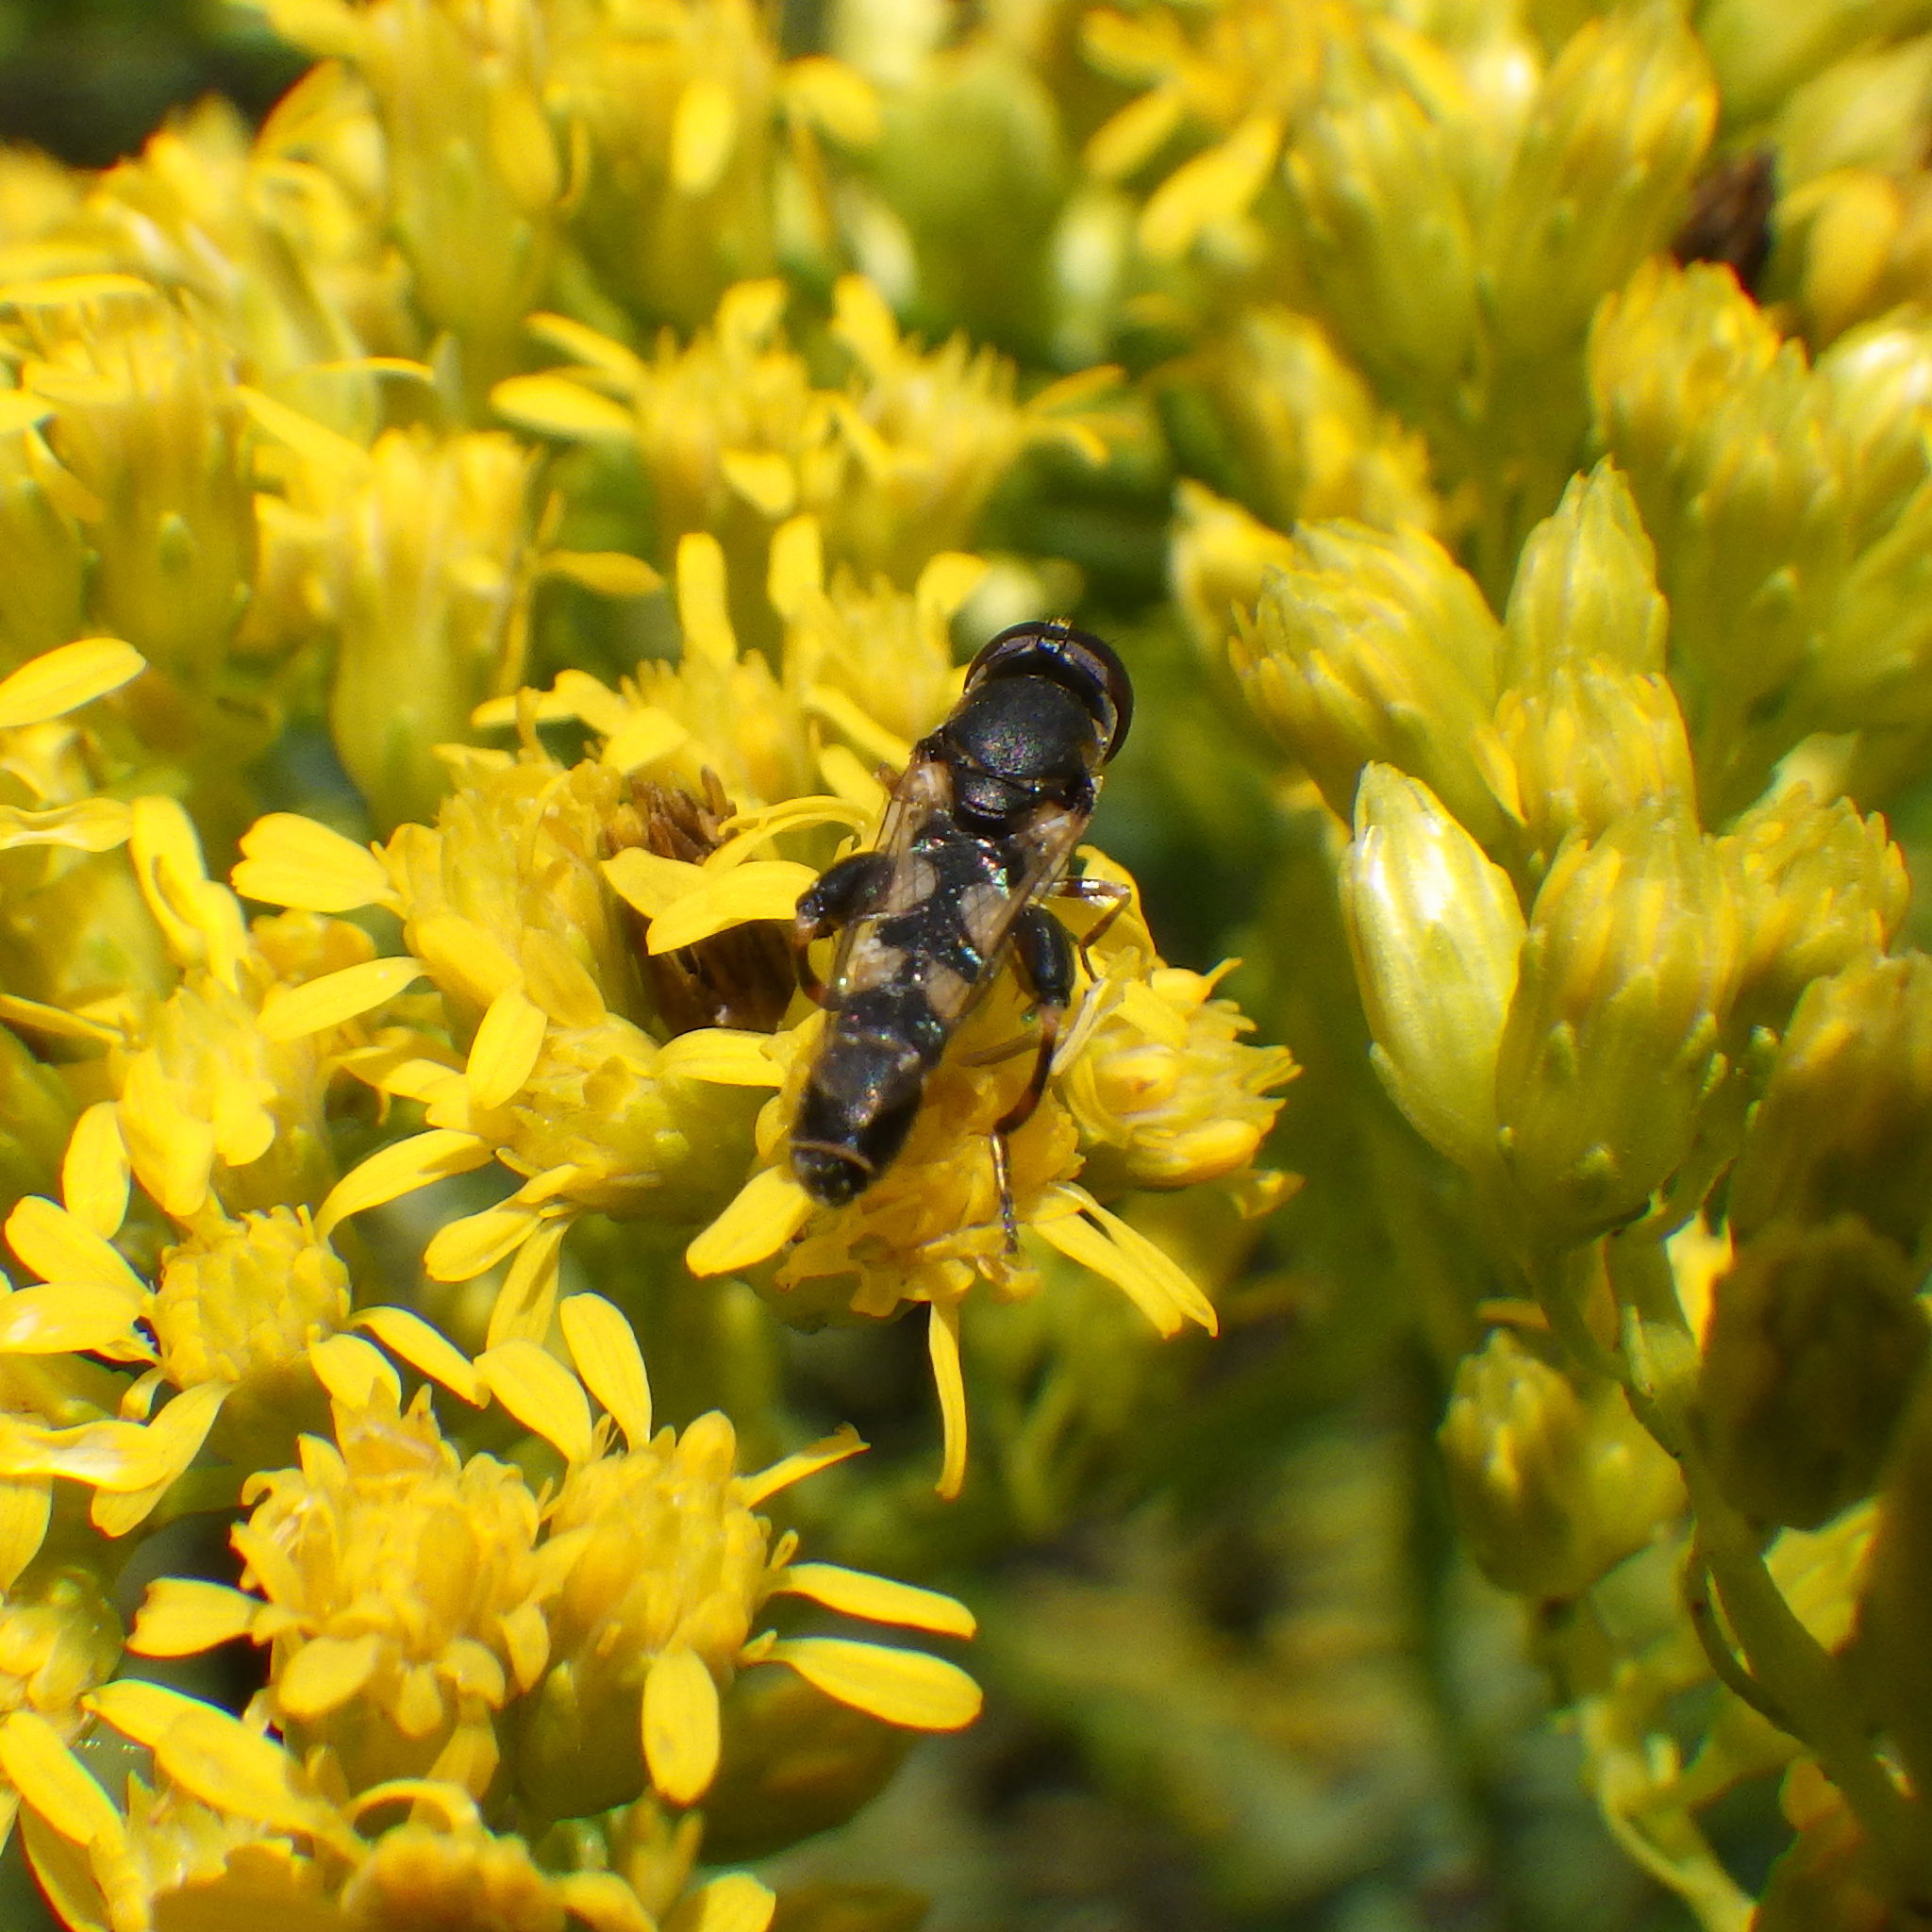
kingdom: Animalia
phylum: Arthropoda
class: Insecta
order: Diptera
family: Syrphidae
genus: Syritta
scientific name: Syritta pipiens
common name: Hover fly
